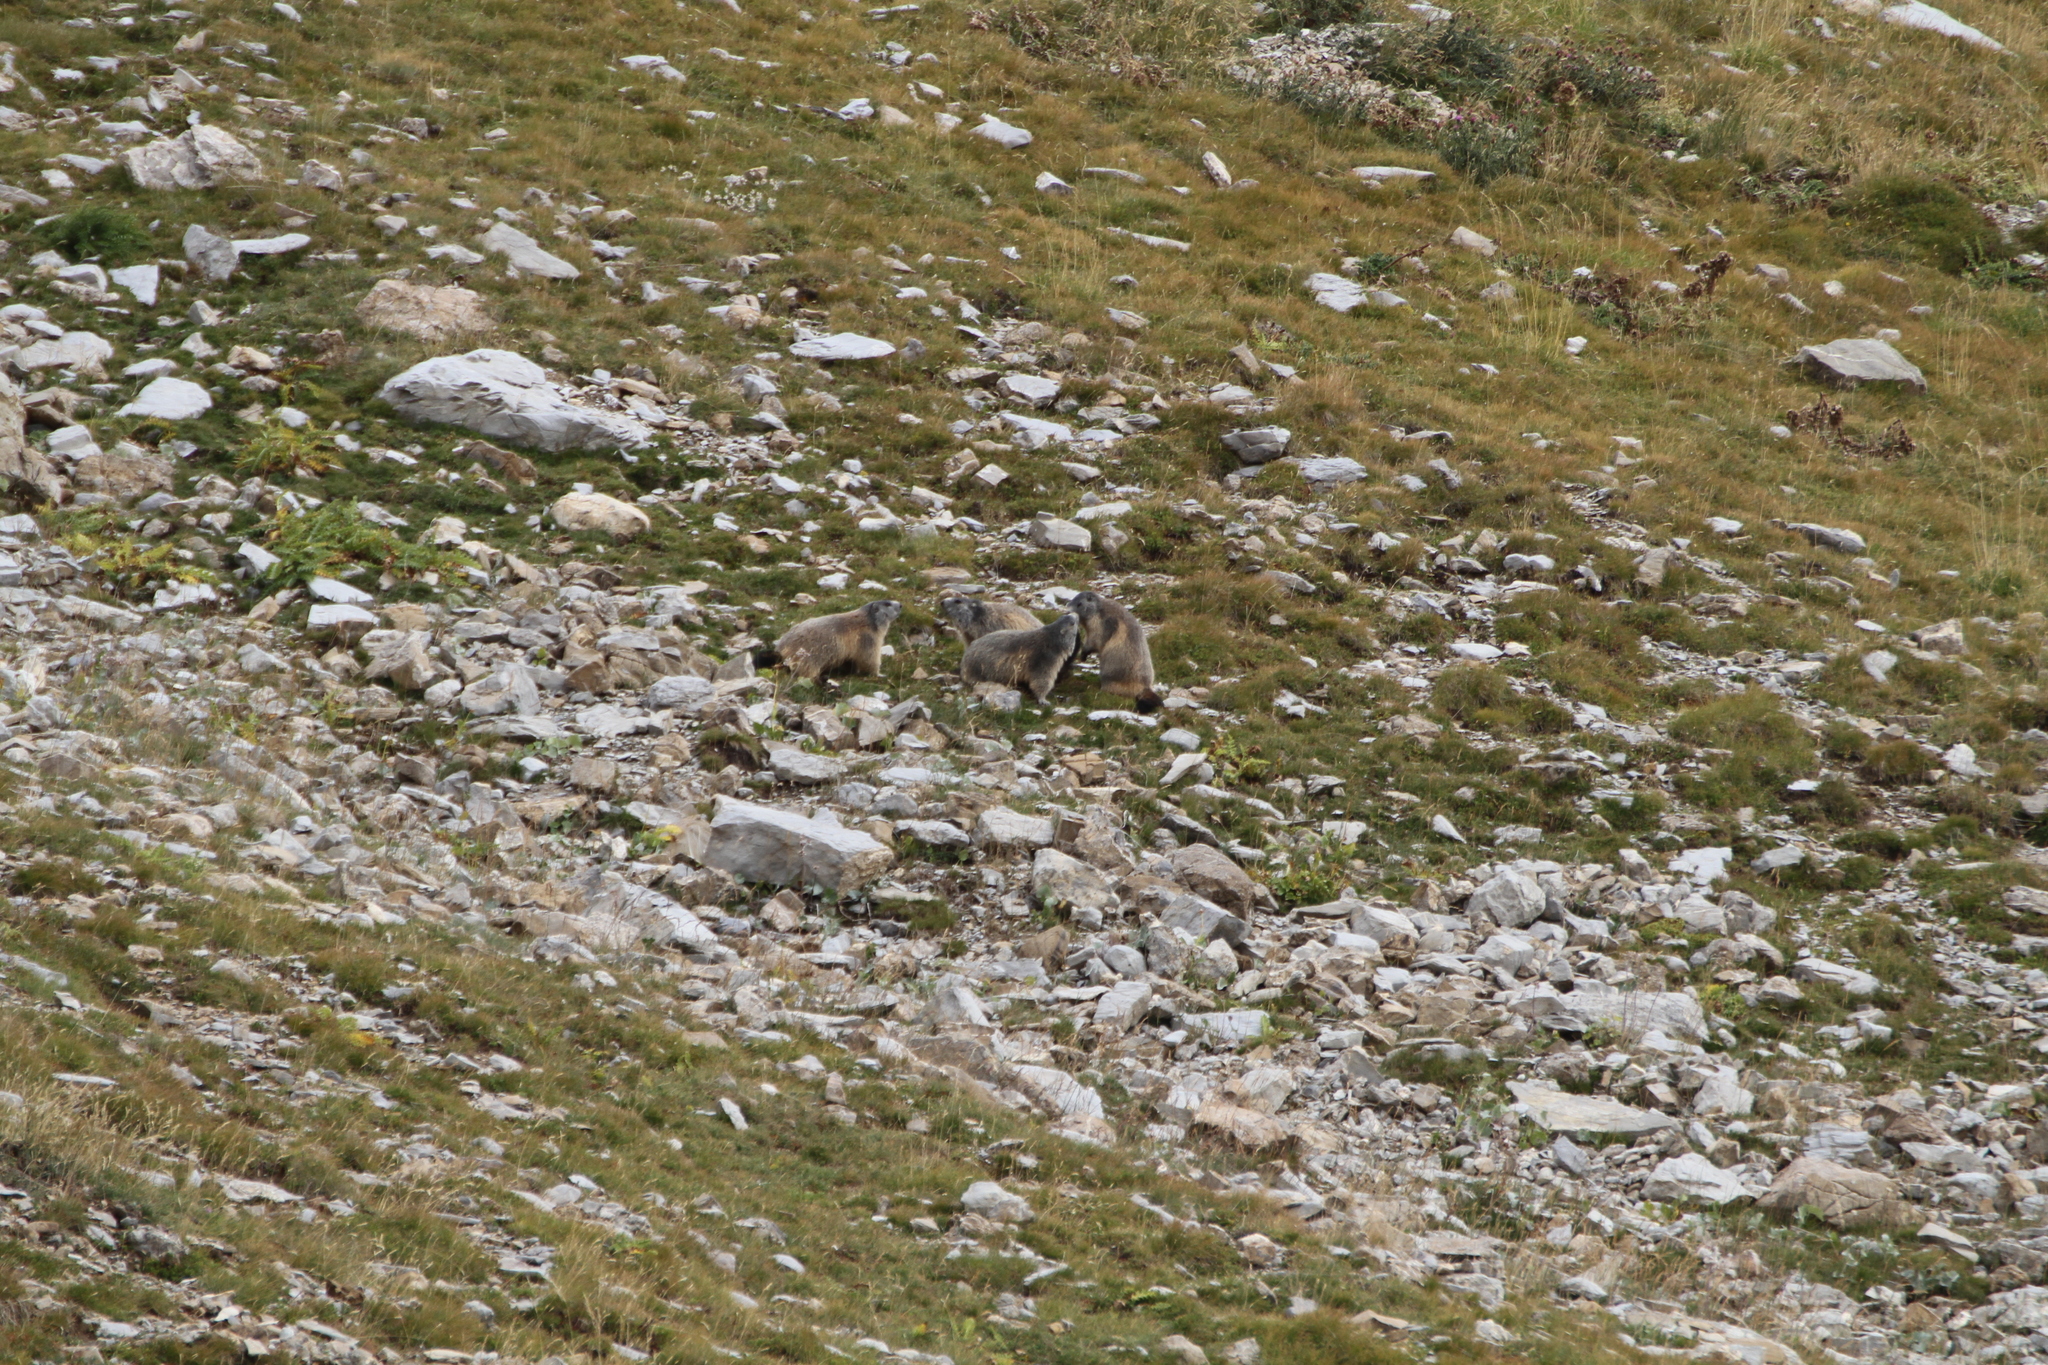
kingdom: Animalia
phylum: Chordata
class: Mammalia
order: Rodentia
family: Sciuridae
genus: Marmota
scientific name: Marmota marmota
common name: Alpine marmot
